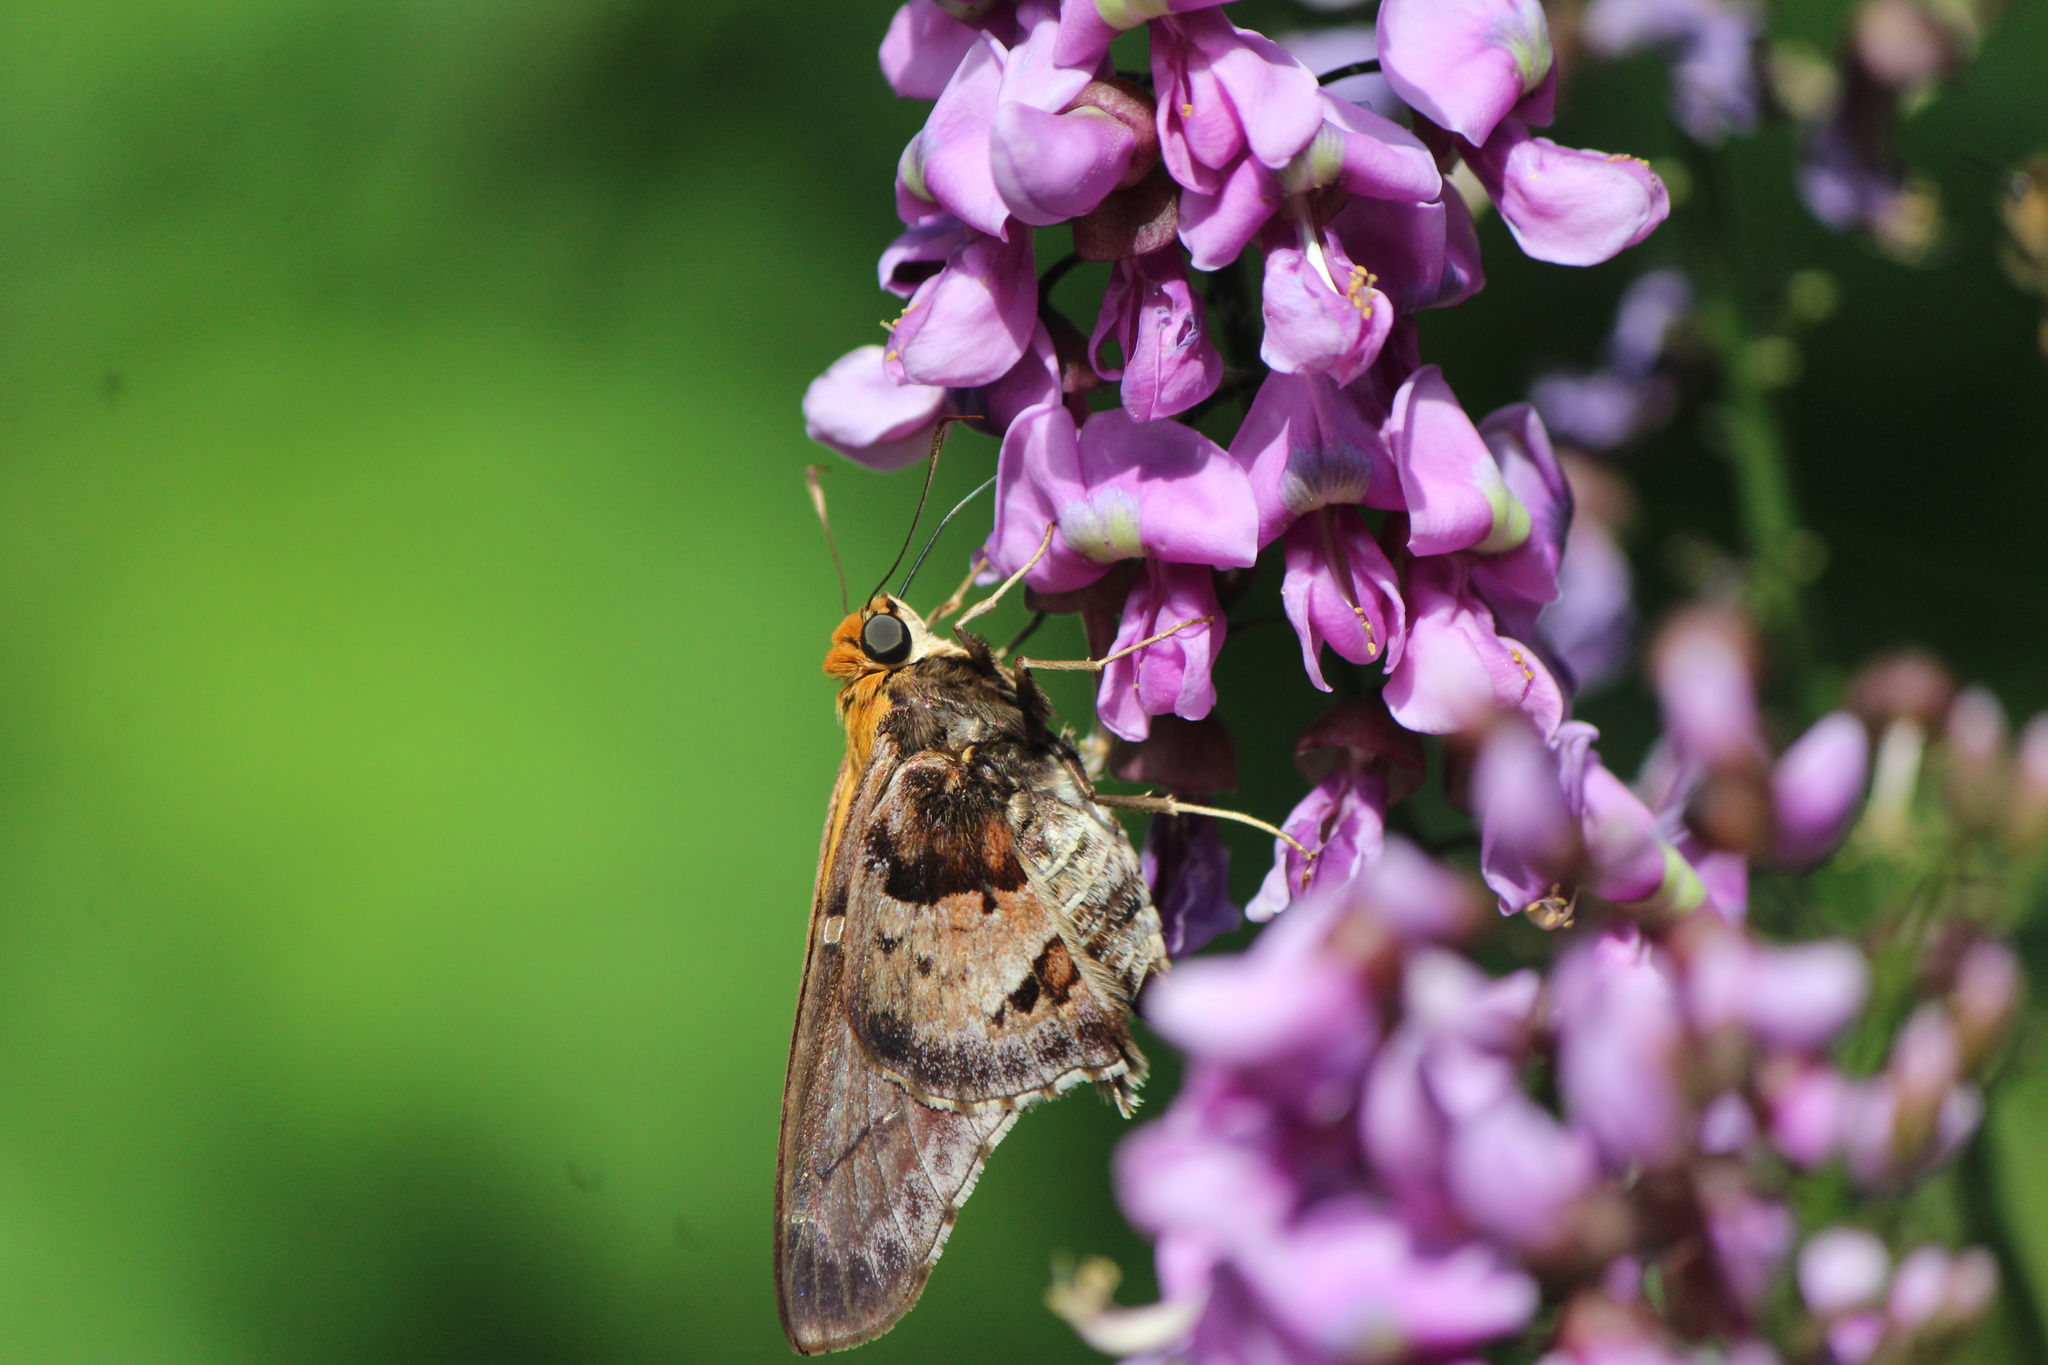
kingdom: Animalia
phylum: Arthropoda
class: Insecta
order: Lepidoptera
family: Hesperiidae
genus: Proteides
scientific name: Proteides mercurius
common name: Mercurial skipper
